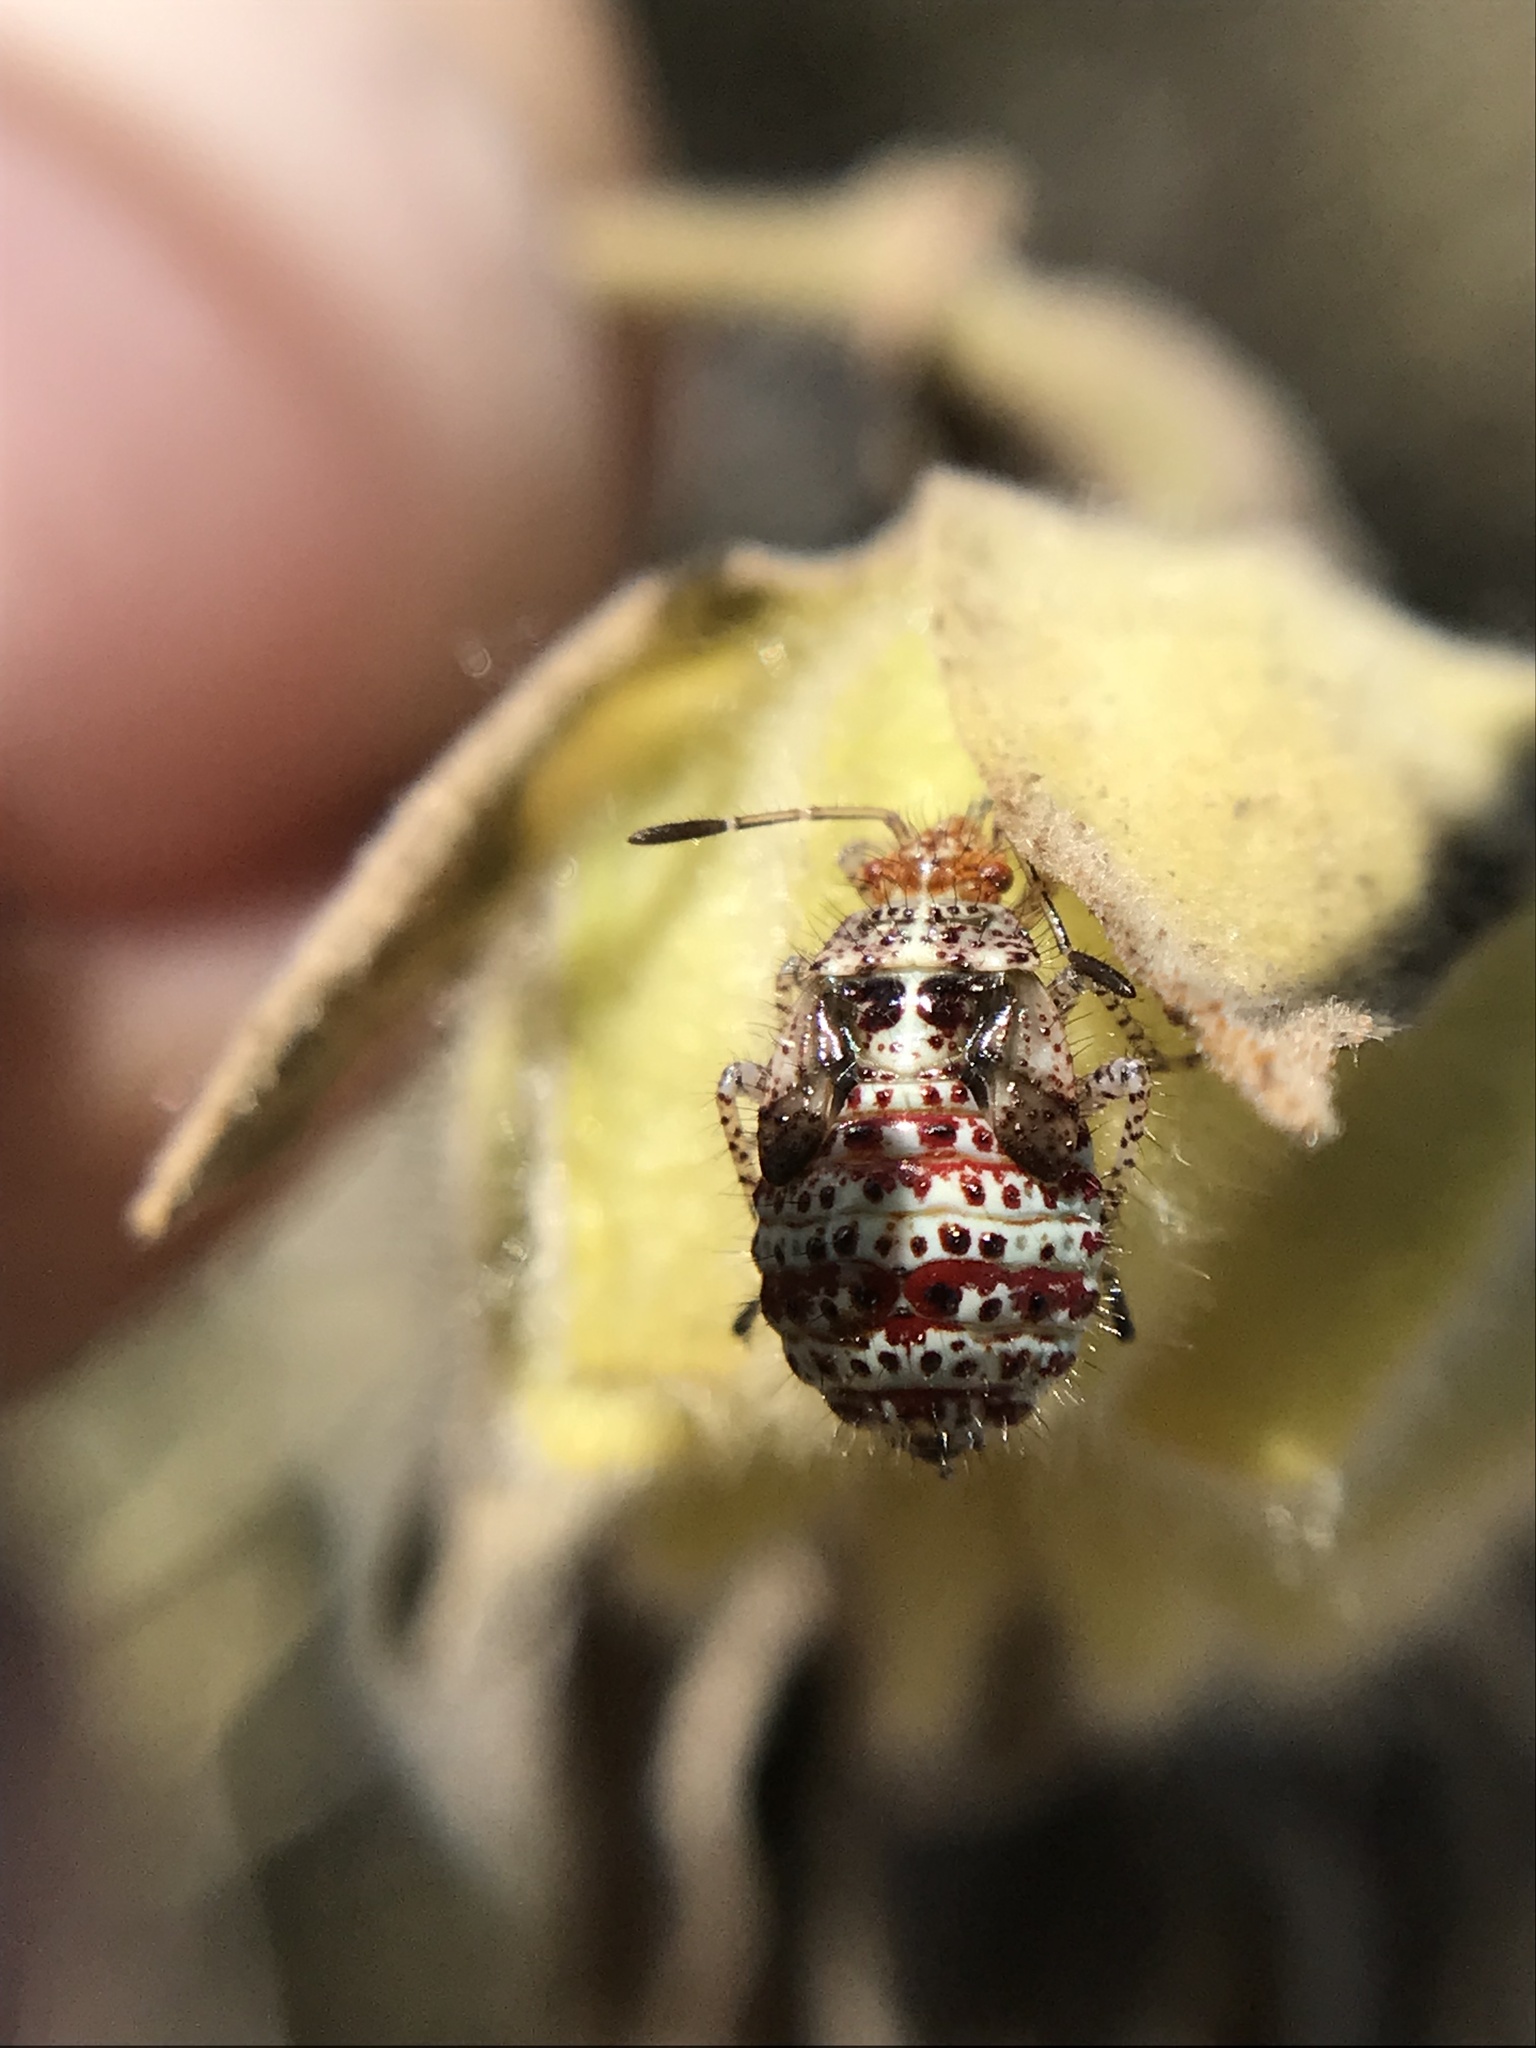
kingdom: Animalia
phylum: Arthropoda
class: Insecta
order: Hemiptera
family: Rhopalidae
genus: Niesthrea
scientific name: Niesthrea
